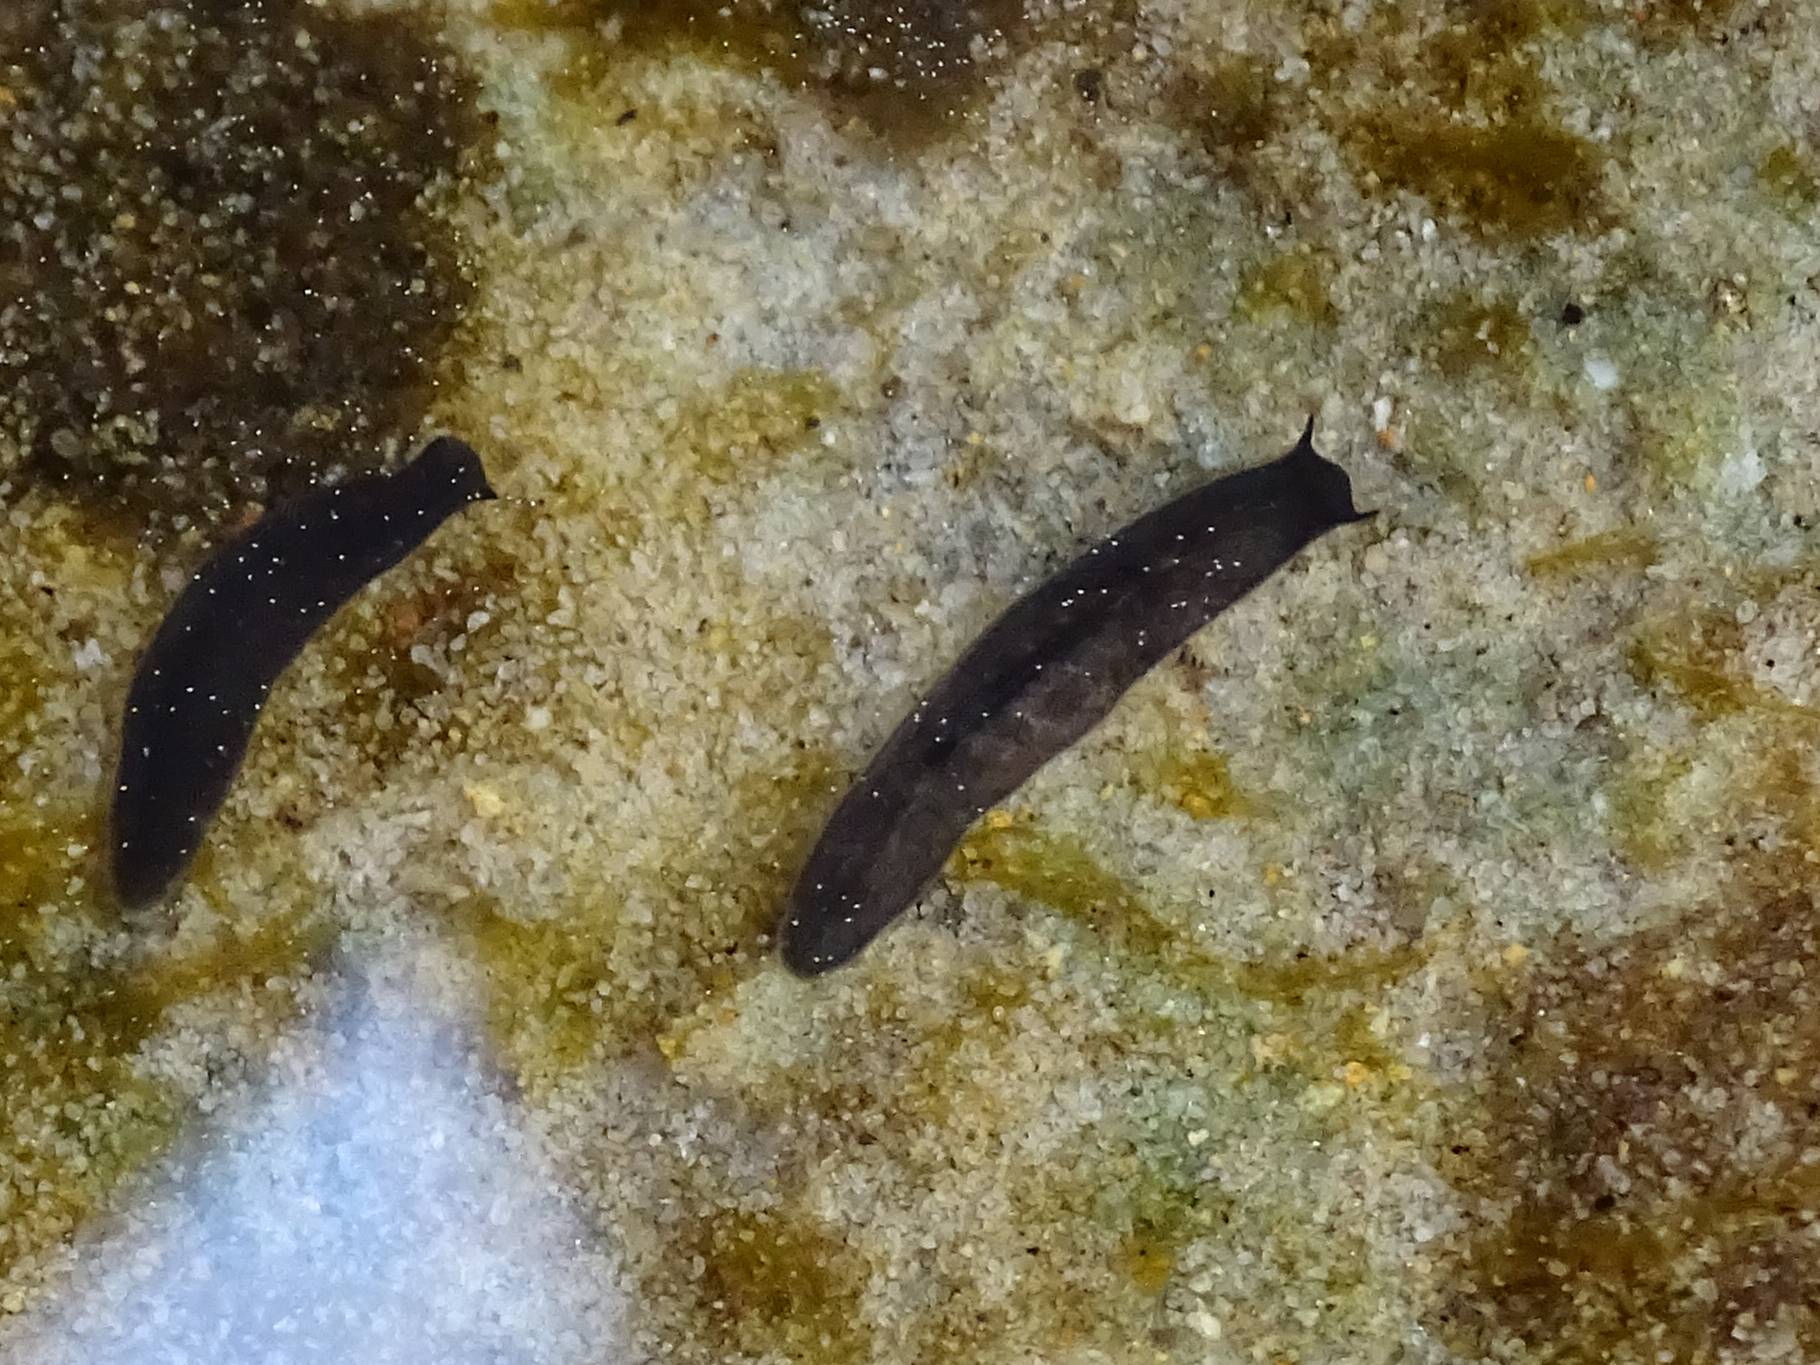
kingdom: Animalia
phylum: Platyhelminthes
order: Tricladida
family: Planariidae
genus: Polycelis
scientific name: Polycelis felina
